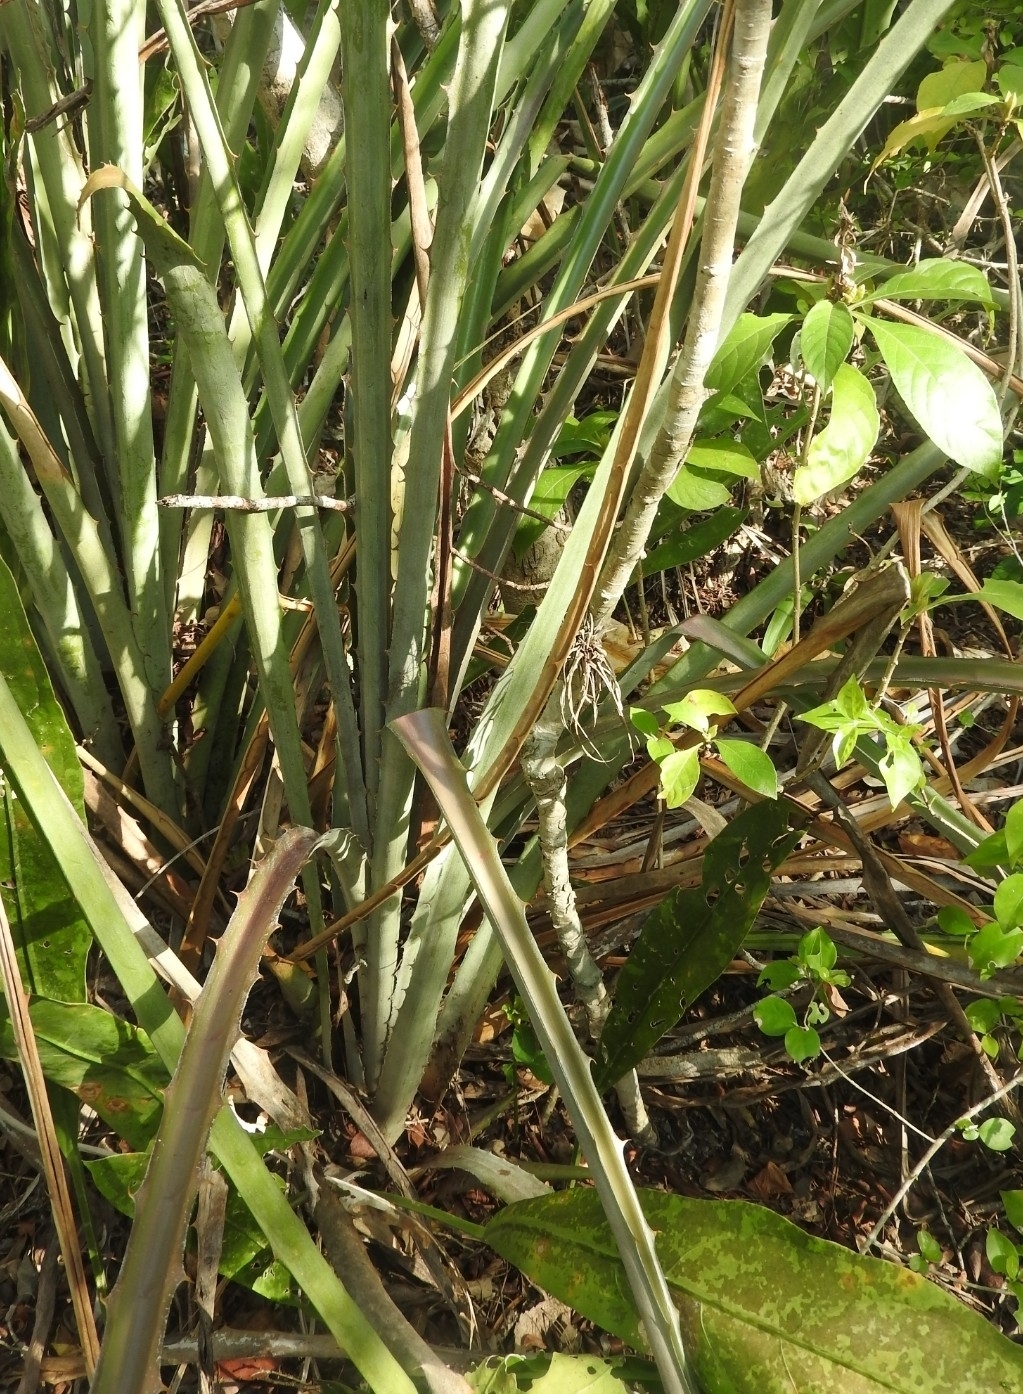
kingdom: Plantae
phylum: Tracheophyta
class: Liliopsida
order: Poales
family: Bromeliaceae
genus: Bromelia
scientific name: Bromelia pinguin
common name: Pinguin
